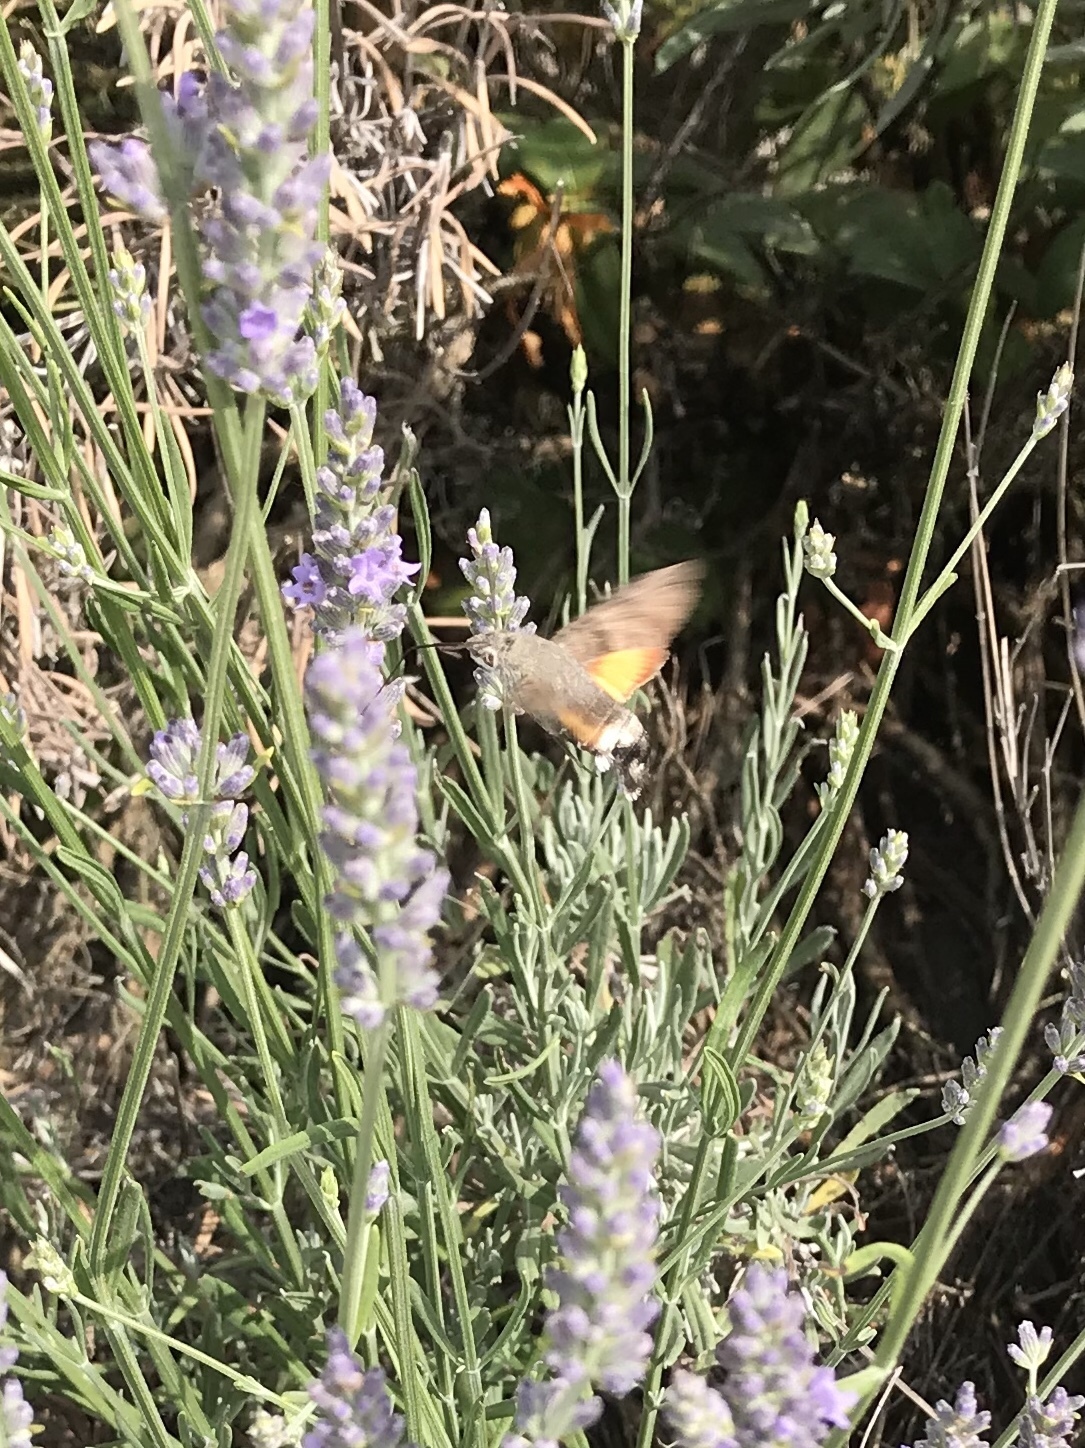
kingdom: Animalia
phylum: Arthropoda
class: Insecta
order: Lepidoptera
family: Sphingidae
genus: Macroglossum
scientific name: Macroglossum stellatarum
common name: Humming-bird hawk-moth
